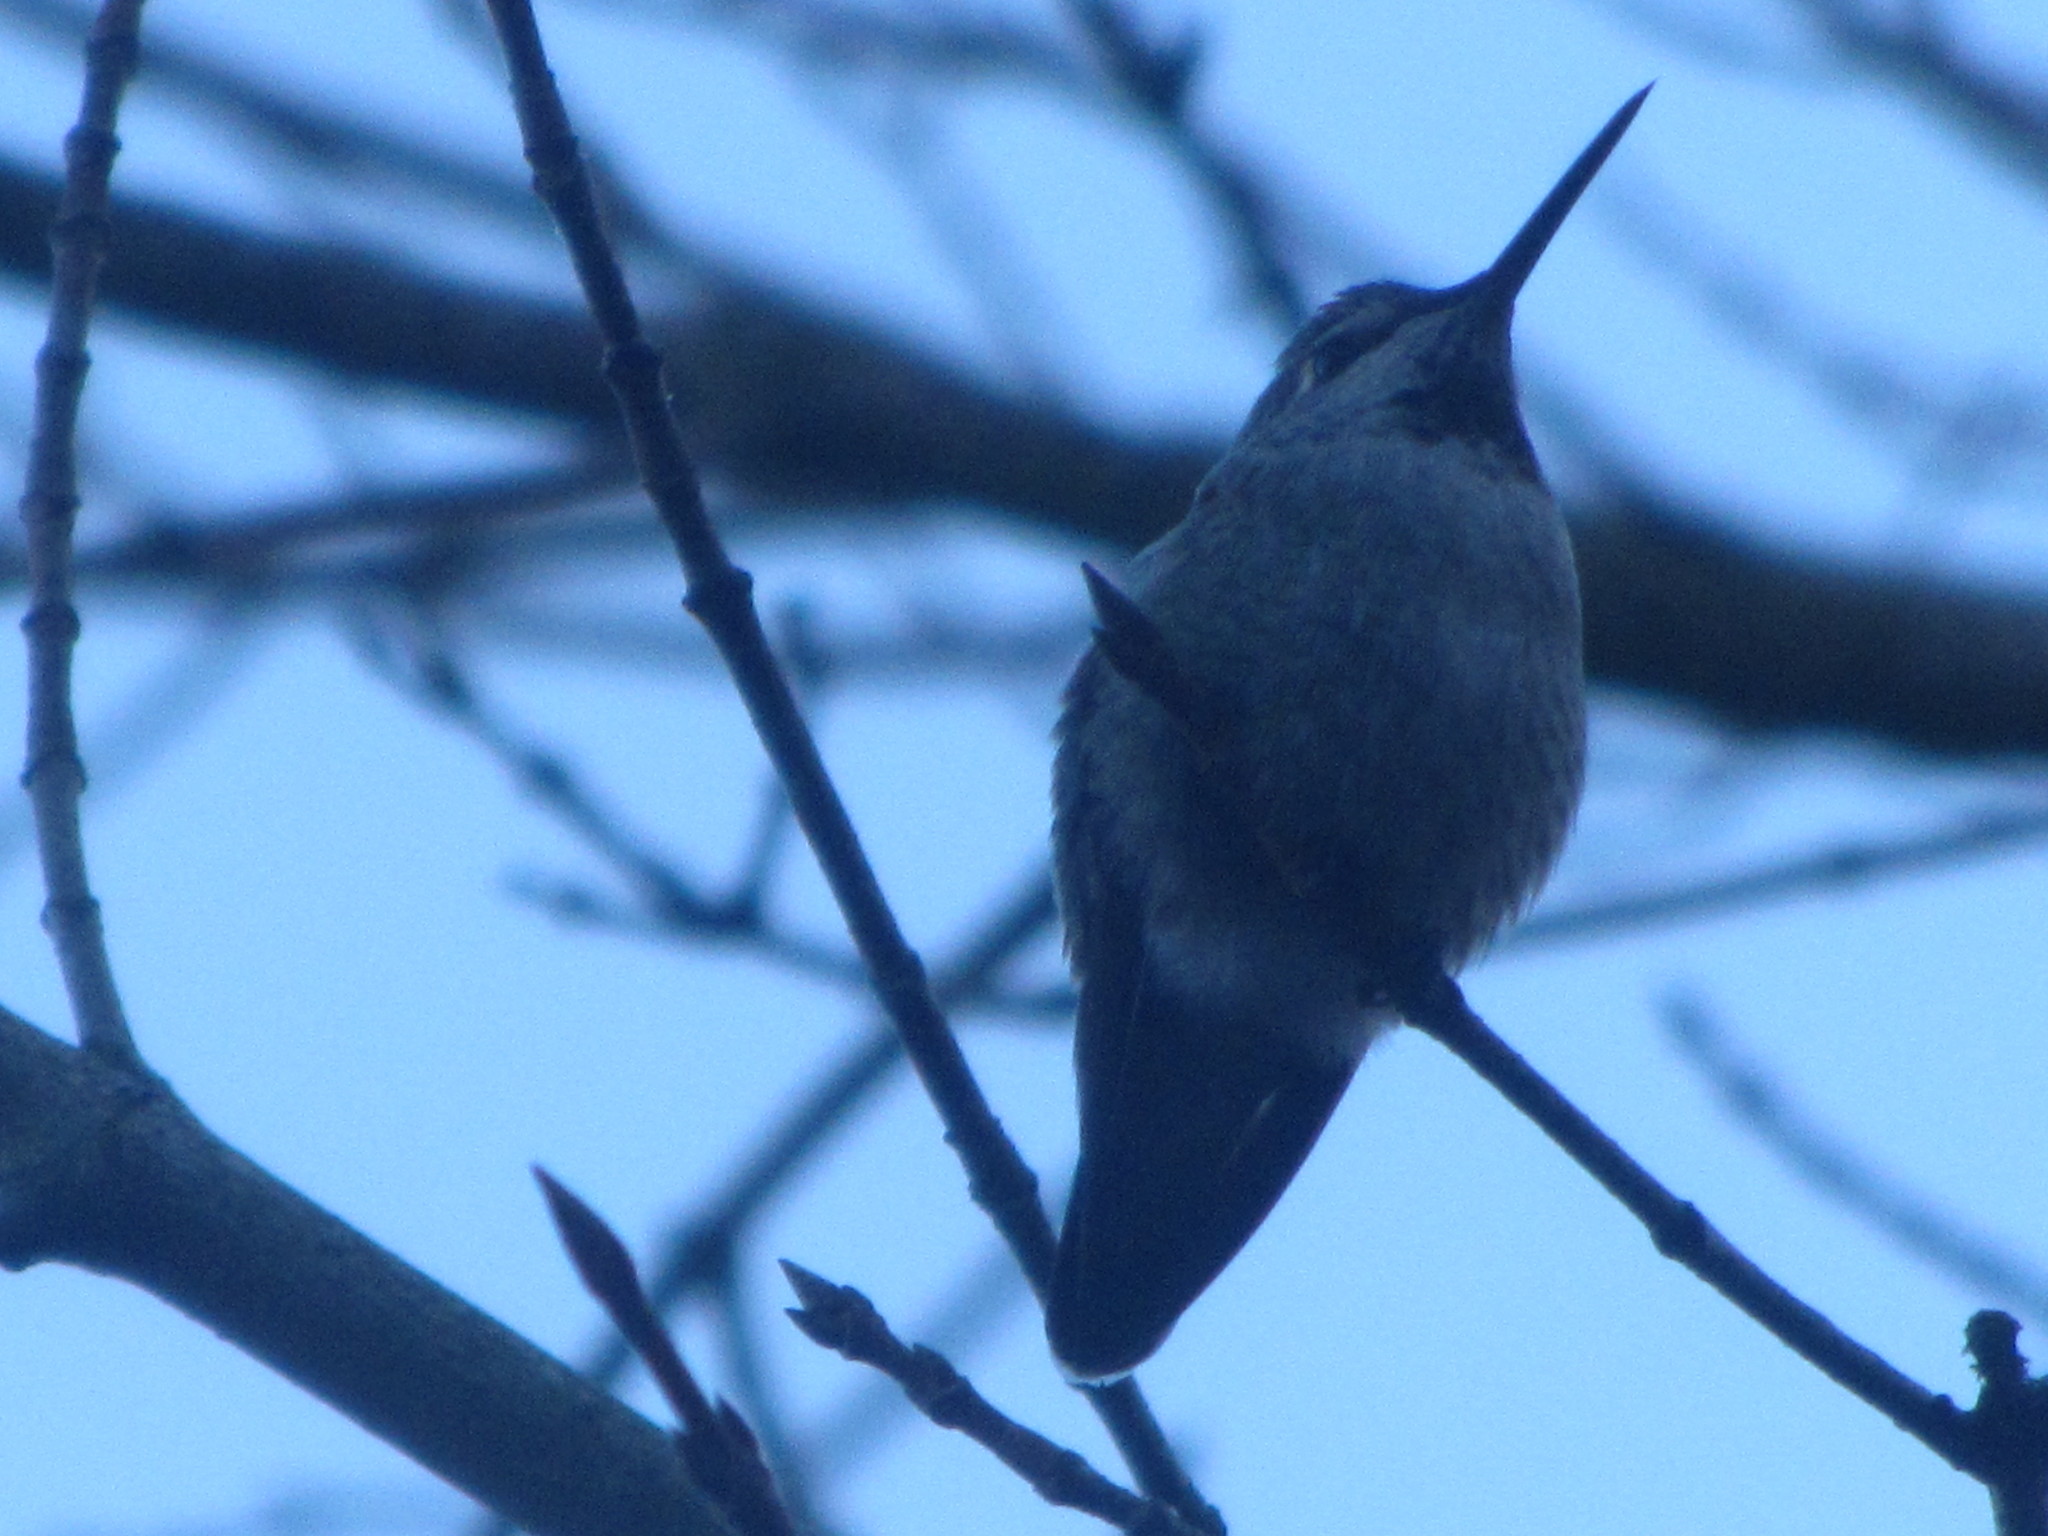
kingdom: Animalia
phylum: Chordata
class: Aves
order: Apodiformes
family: Trochilidae
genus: Calypte
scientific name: Calypte anna
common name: Anna's hummingbird
